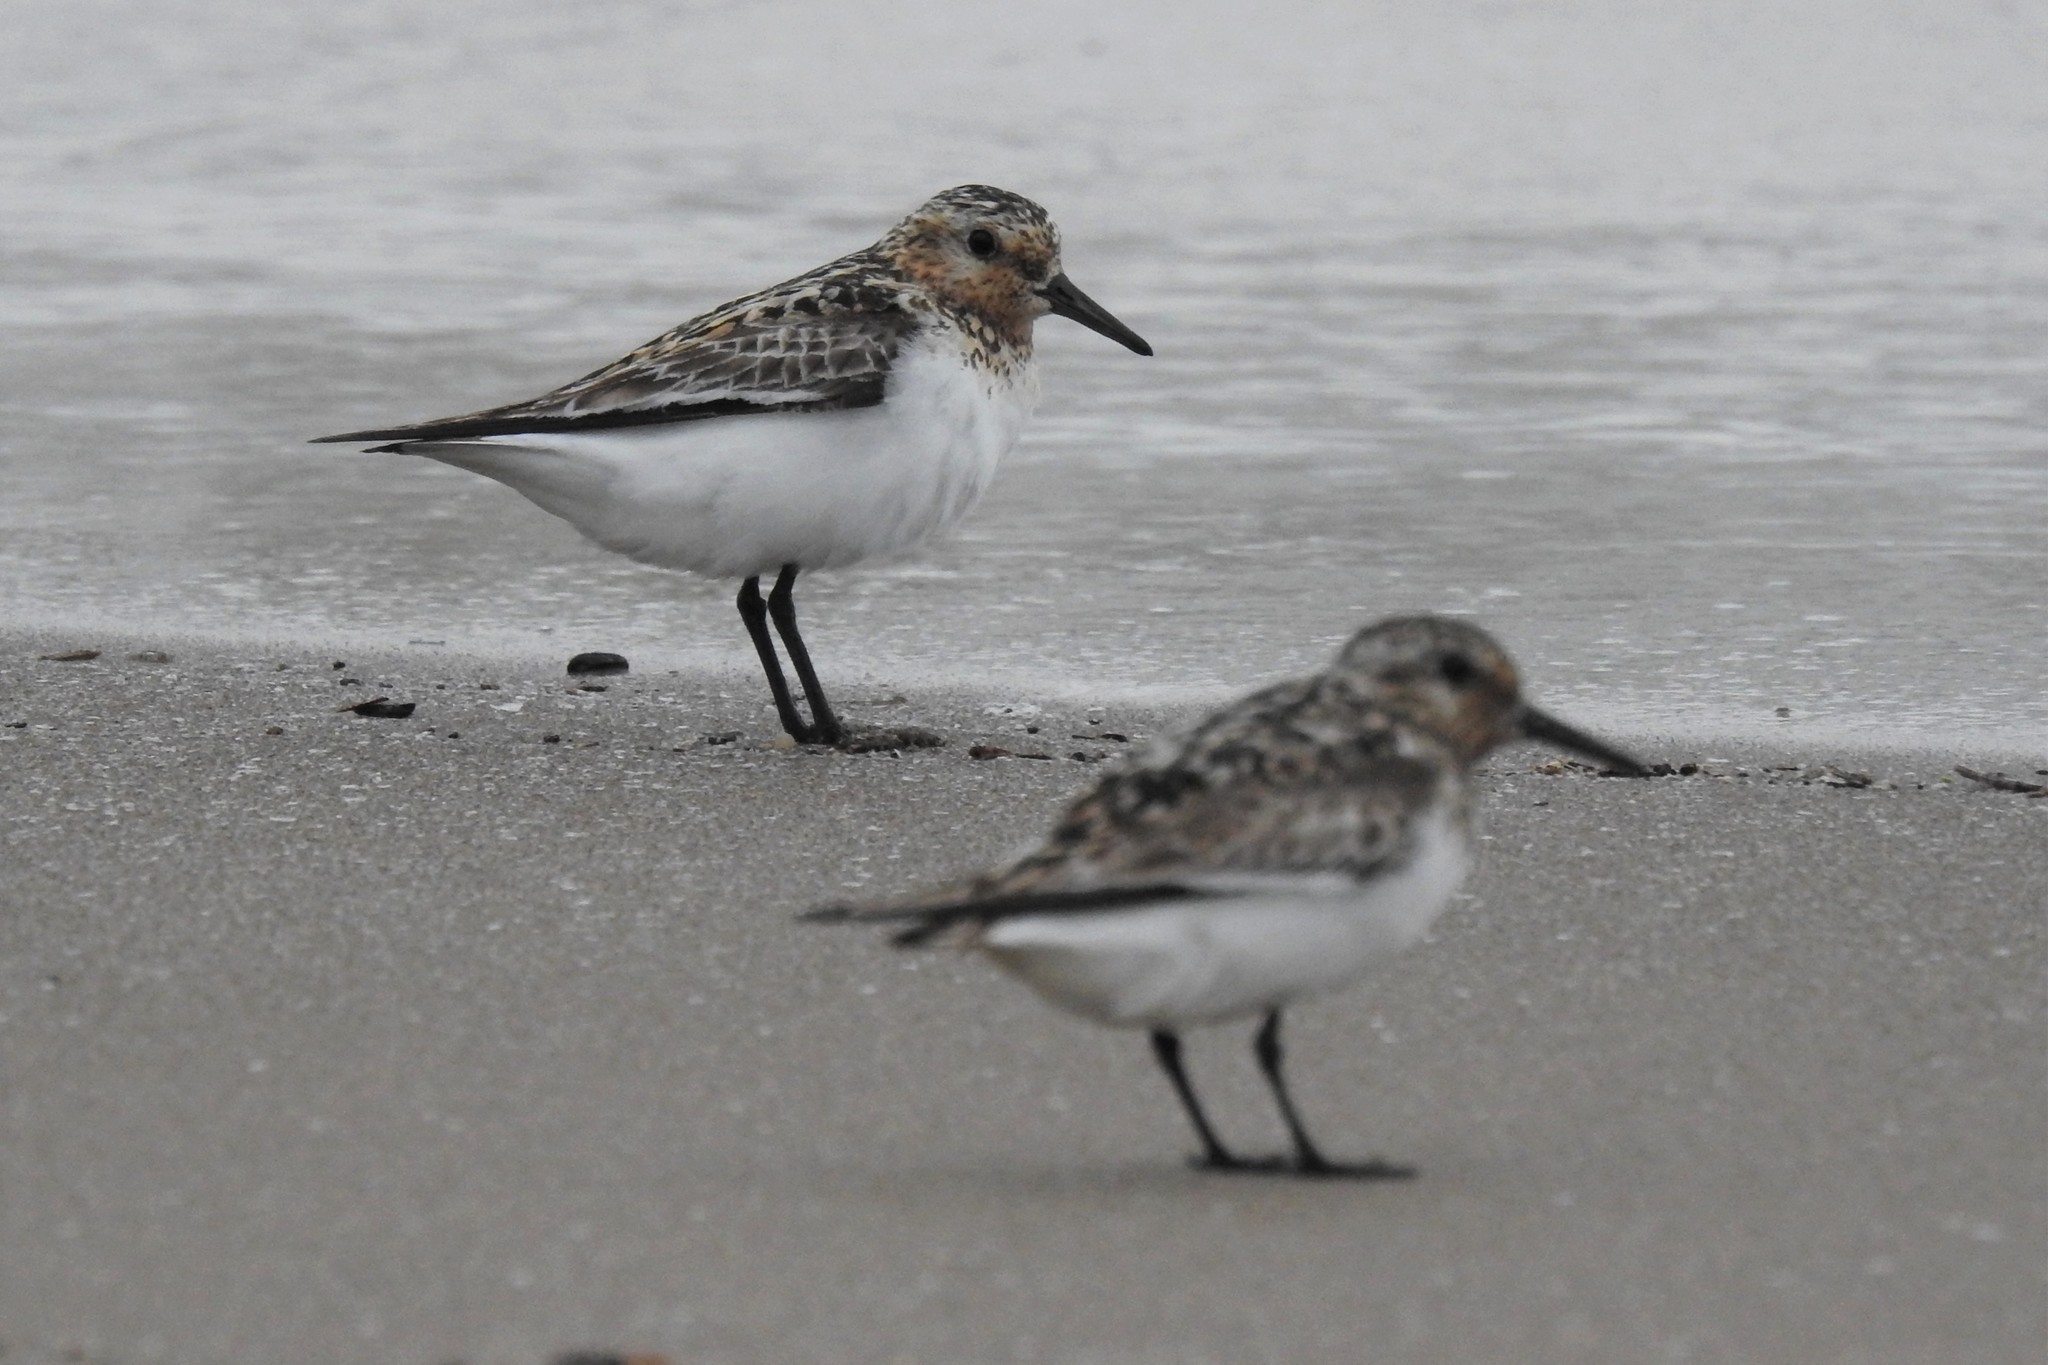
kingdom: Animalia
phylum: Chordata
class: Aves
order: Charadriiformes
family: Scolopacidae
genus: Calidris
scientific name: Calidris alba
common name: Sanderling
